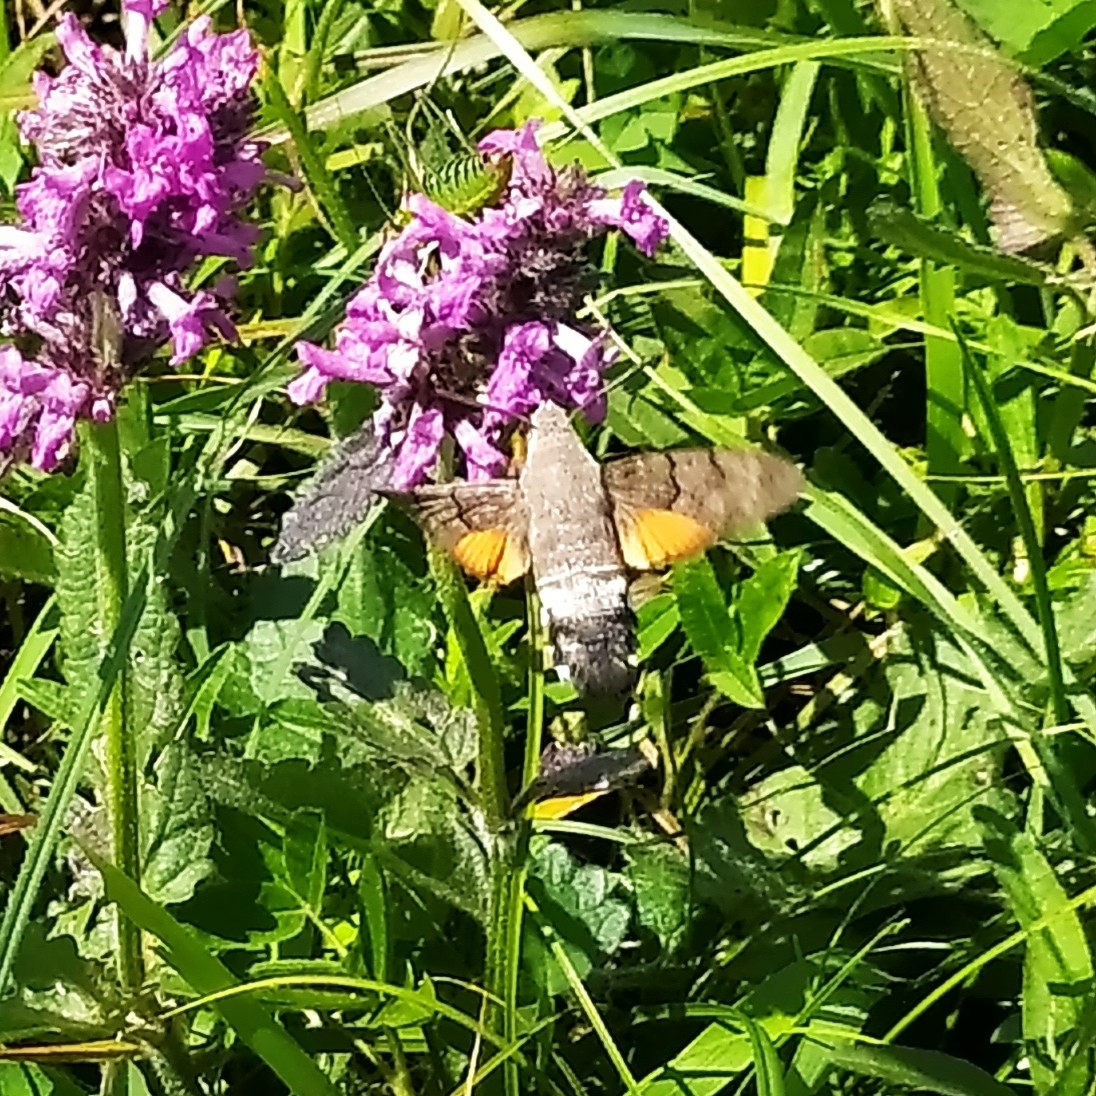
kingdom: Animalia
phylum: Arthropoda
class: Insecta
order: Lepidoptera
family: Sphingidae
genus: Macroglossum
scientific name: Macroglossum stellatarum
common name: Humming-bird hawk-moth
